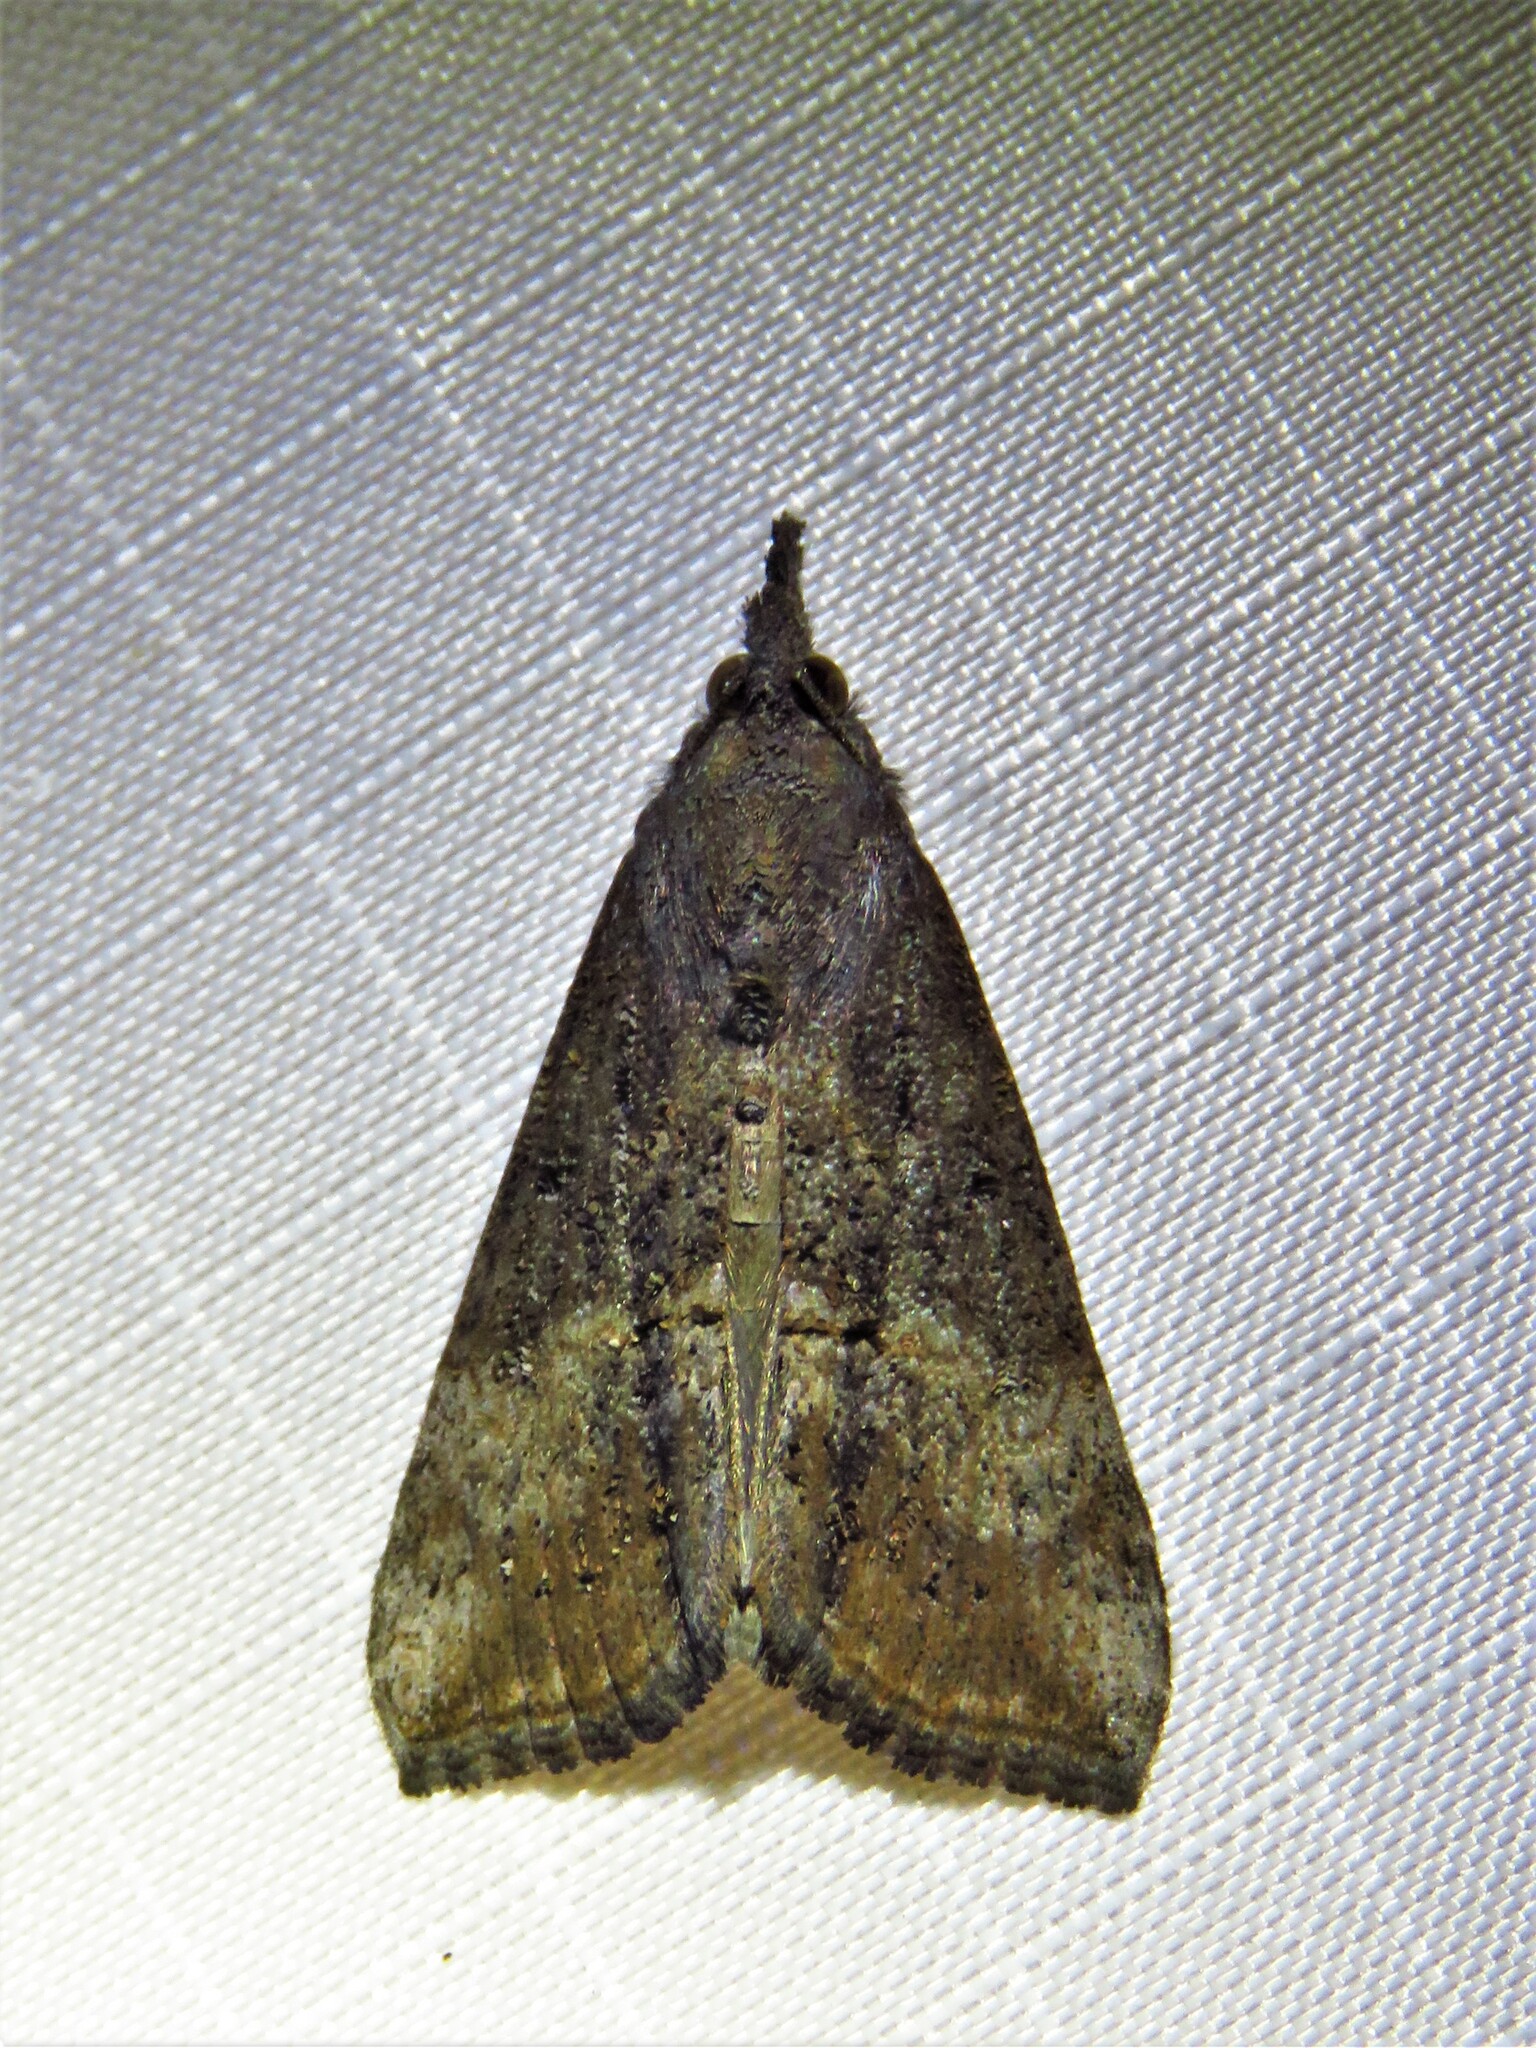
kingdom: Animalia
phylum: Arthropoda
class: Insecta
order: Lepidoptera
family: Erebidae
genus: Hypena
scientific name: Hypena scabra
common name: Green cloverworm
